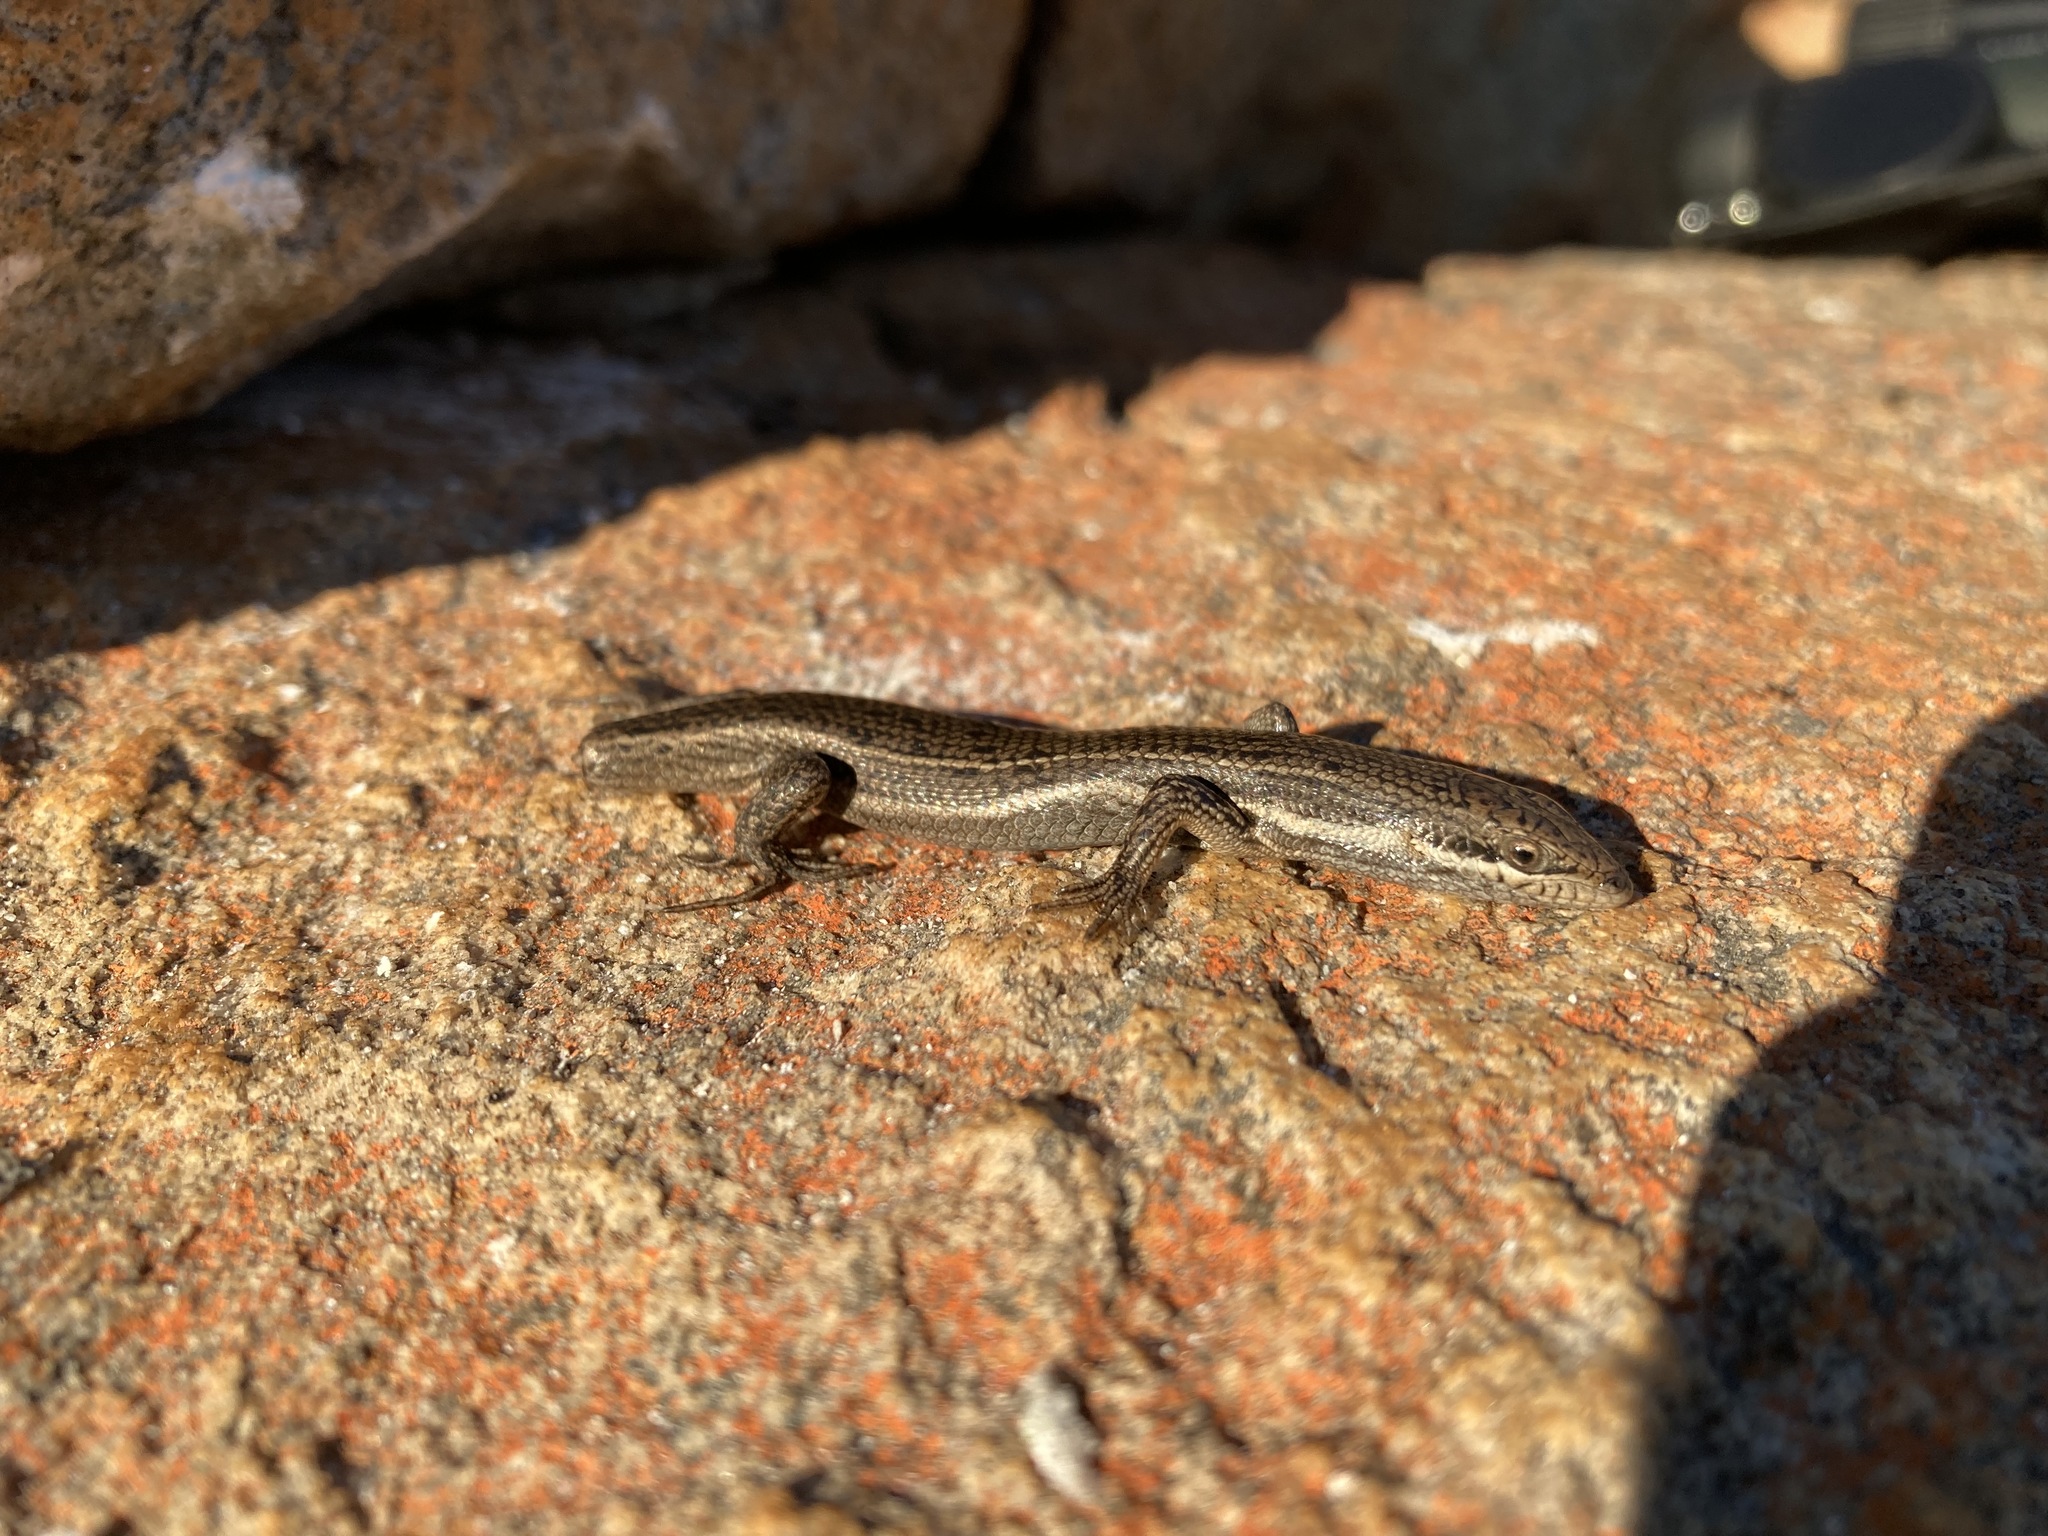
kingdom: Animalia
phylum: Chordata
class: Squamata
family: Scincidae
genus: Trachylepis
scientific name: Trachylepis variegata
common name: Variegated skink
